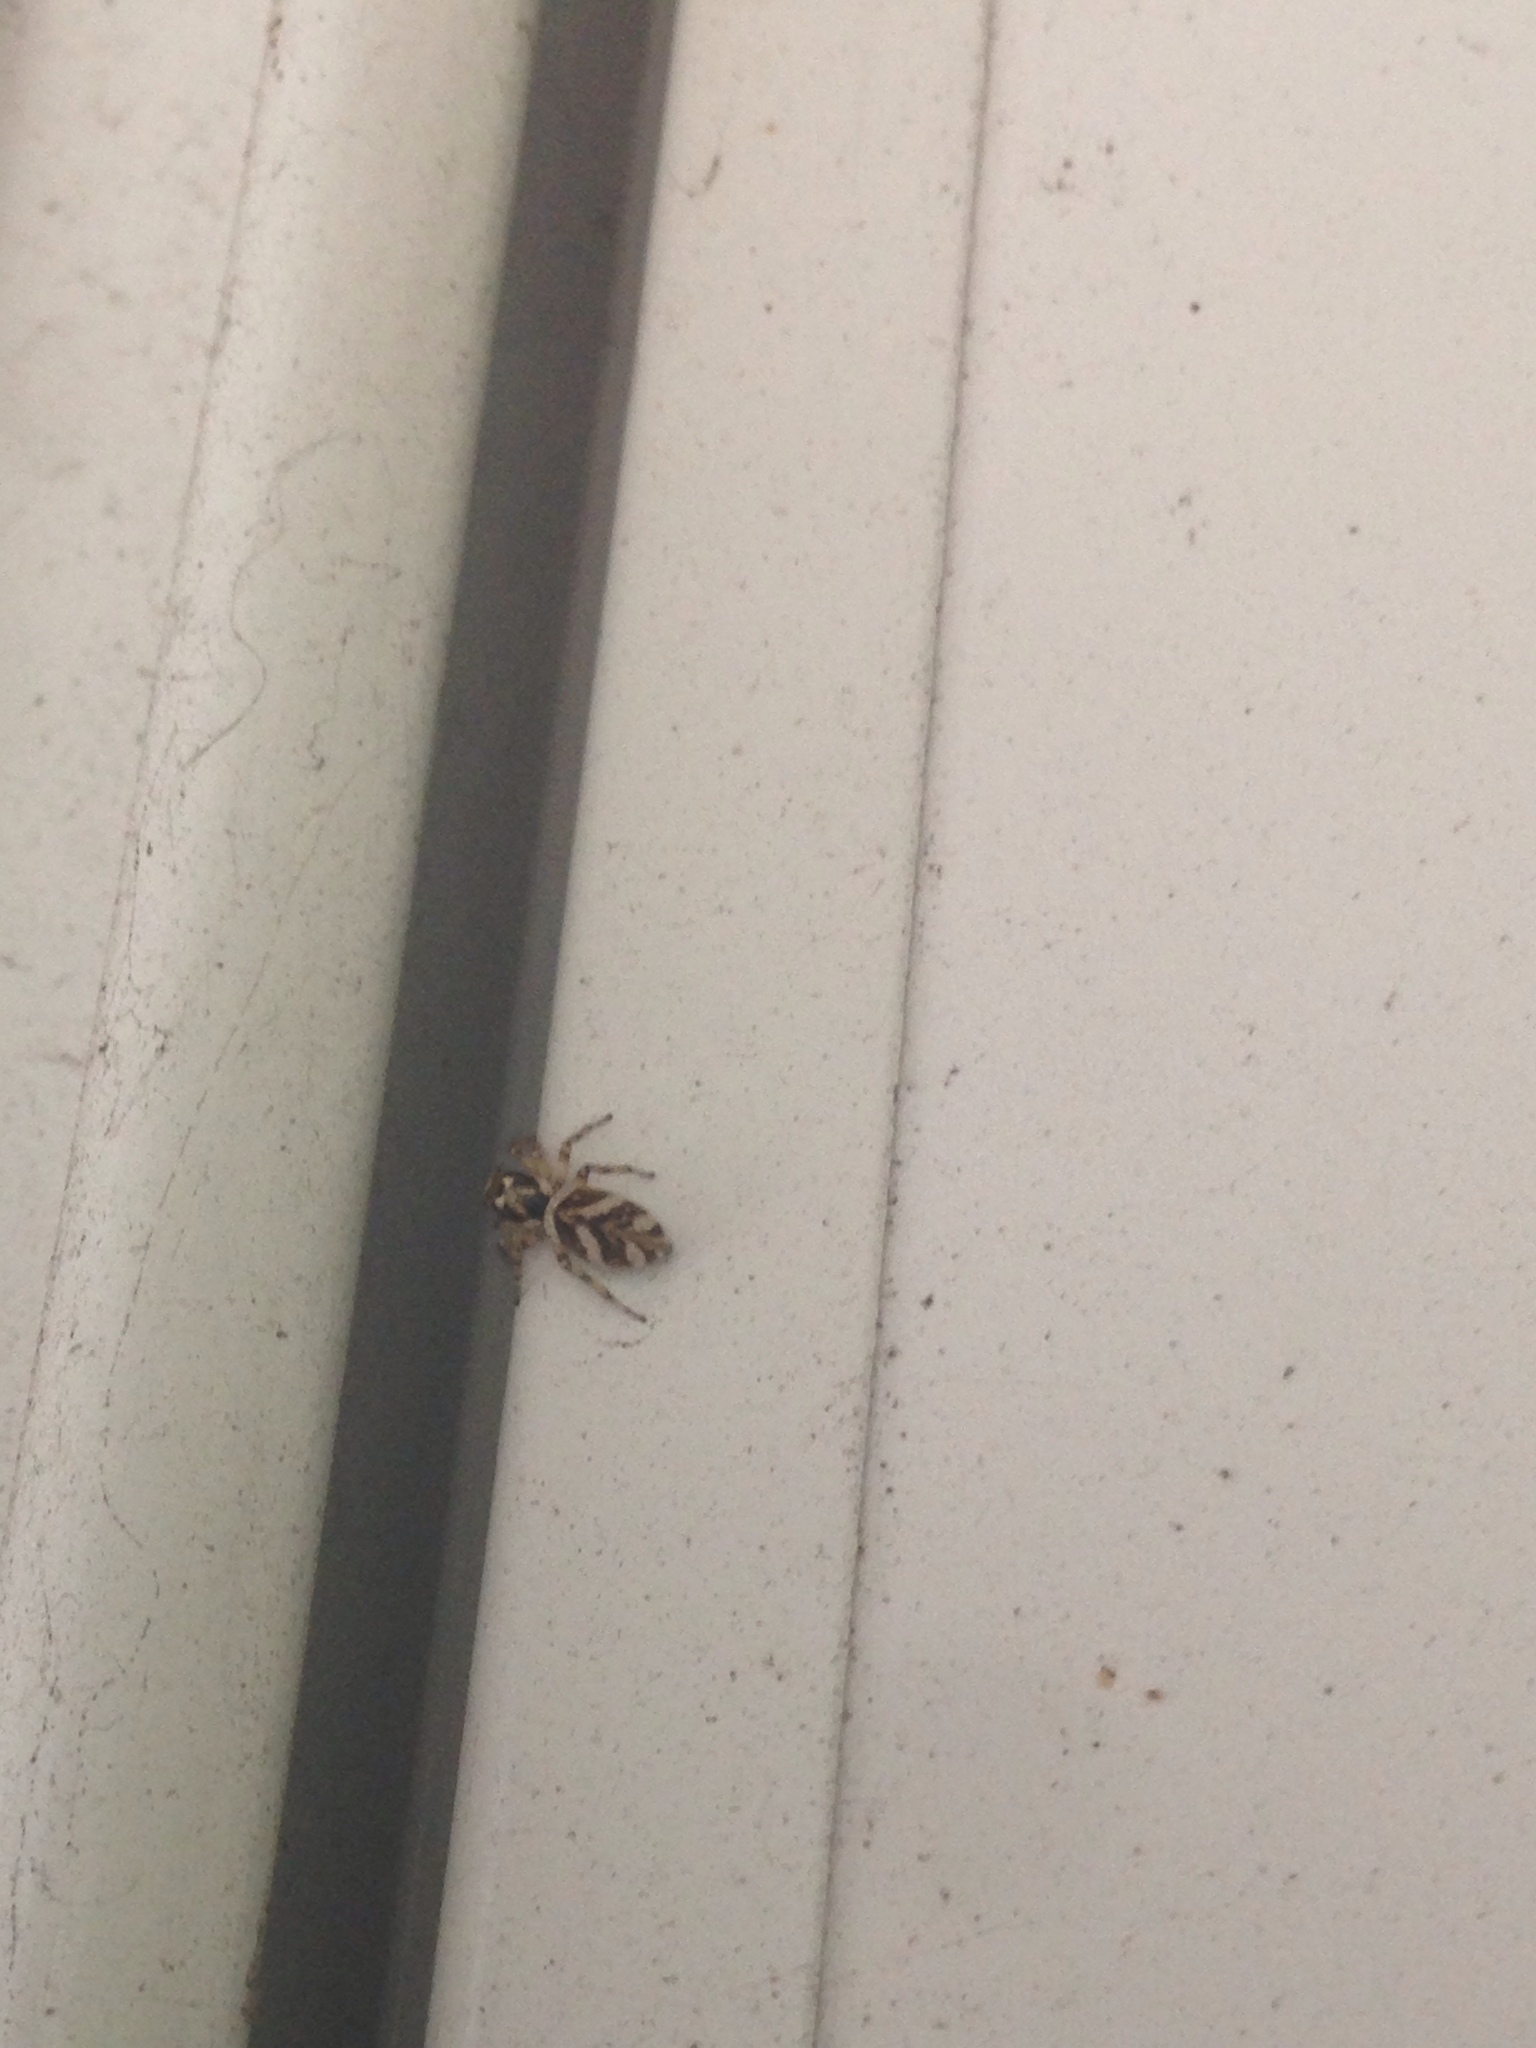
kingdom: Animalia
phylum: Arthropoda
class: Arachnida
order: Araneae
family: Salticidae
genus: Salticus
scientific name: Salticus scenicus
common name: Zebra jumper
